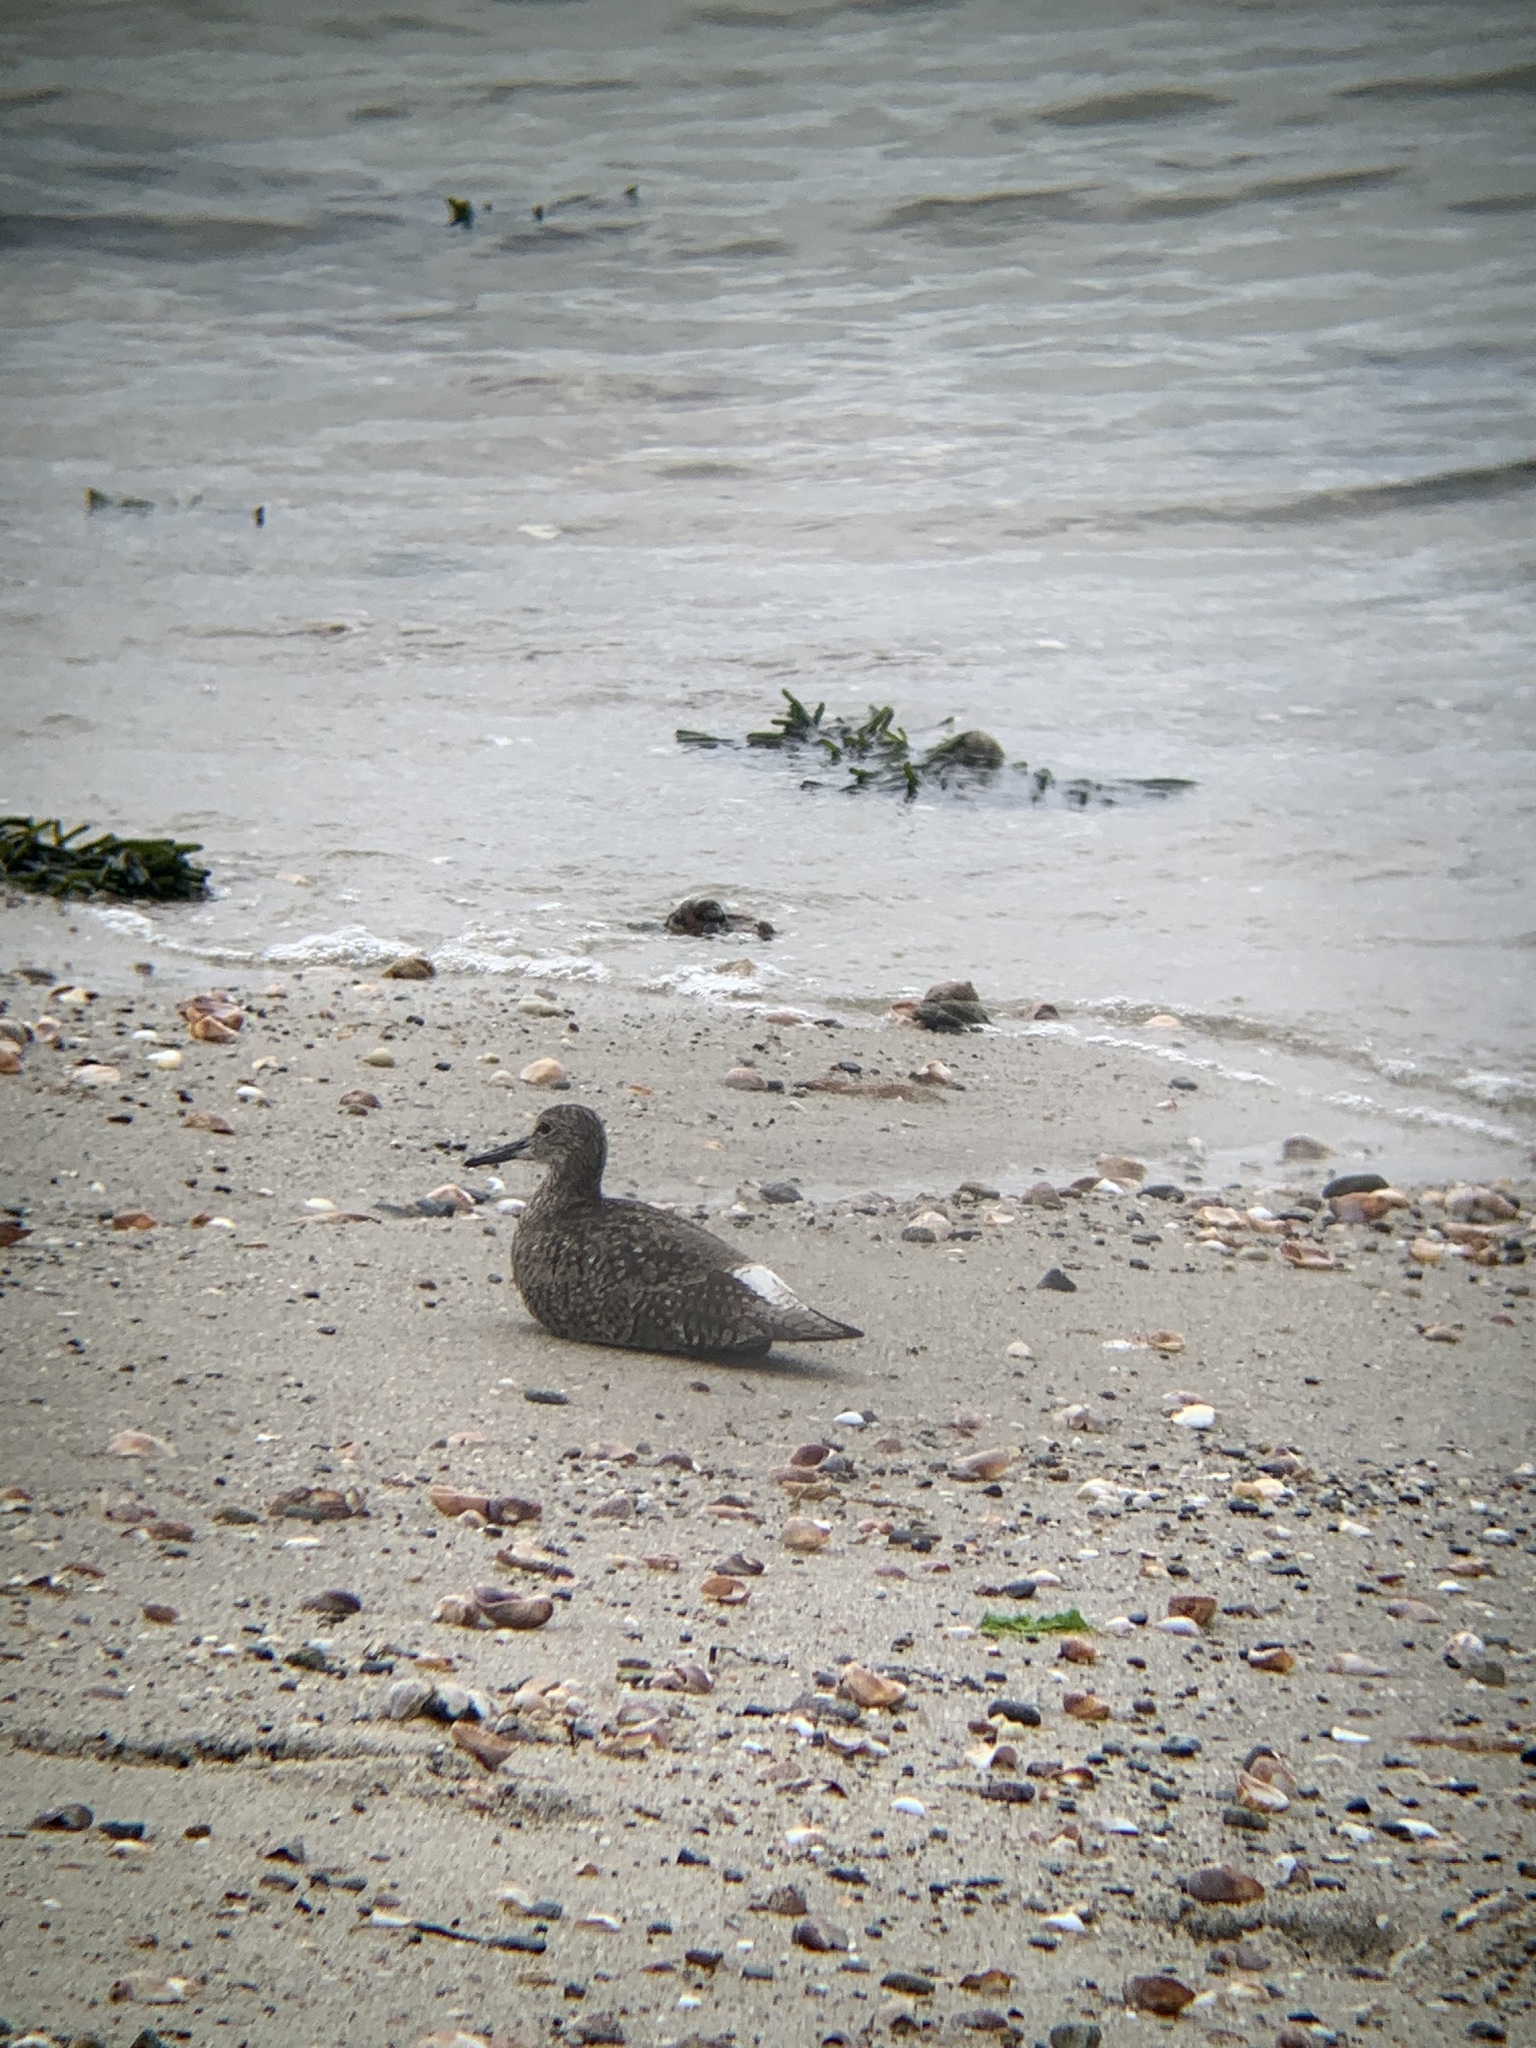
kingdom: Animalia
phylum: Chordata
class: Aves
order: Charadriiformes
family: Scolopacidae
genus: Tringa
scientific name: Tringa semipalmata
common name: Willet
